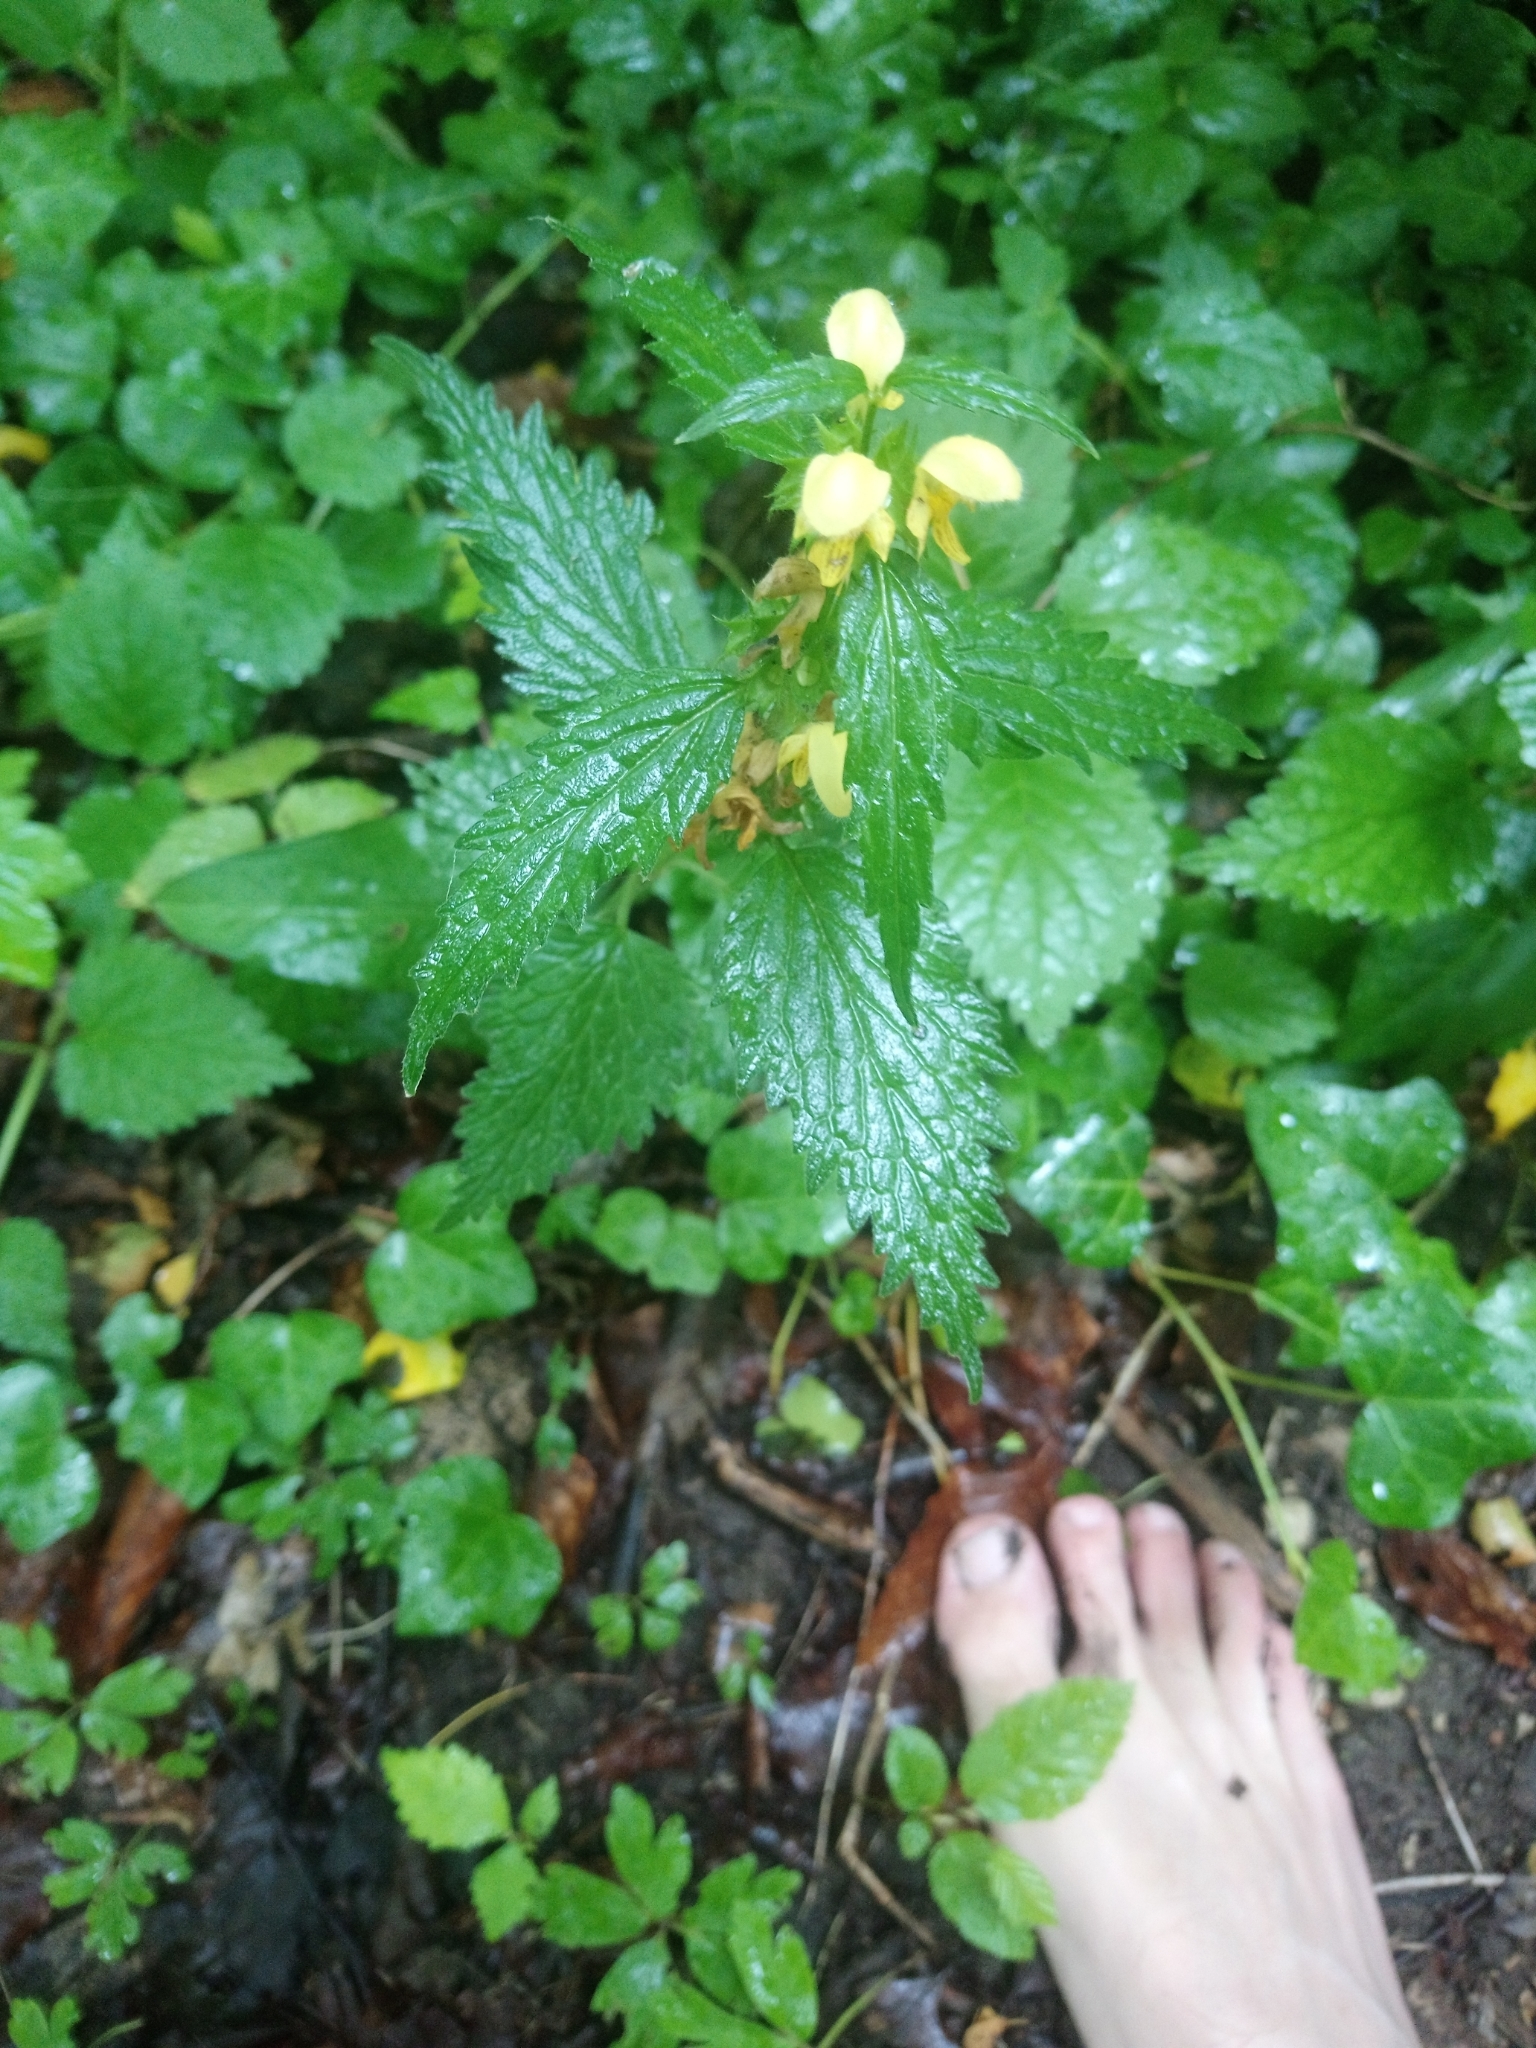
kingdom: Plantae
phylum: Tracheophyta
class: Magnoliopsida
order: Lamiales
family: Lamiaceae
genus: Lamium
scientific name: Lamium galeobdolon
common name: Yellow archangel
